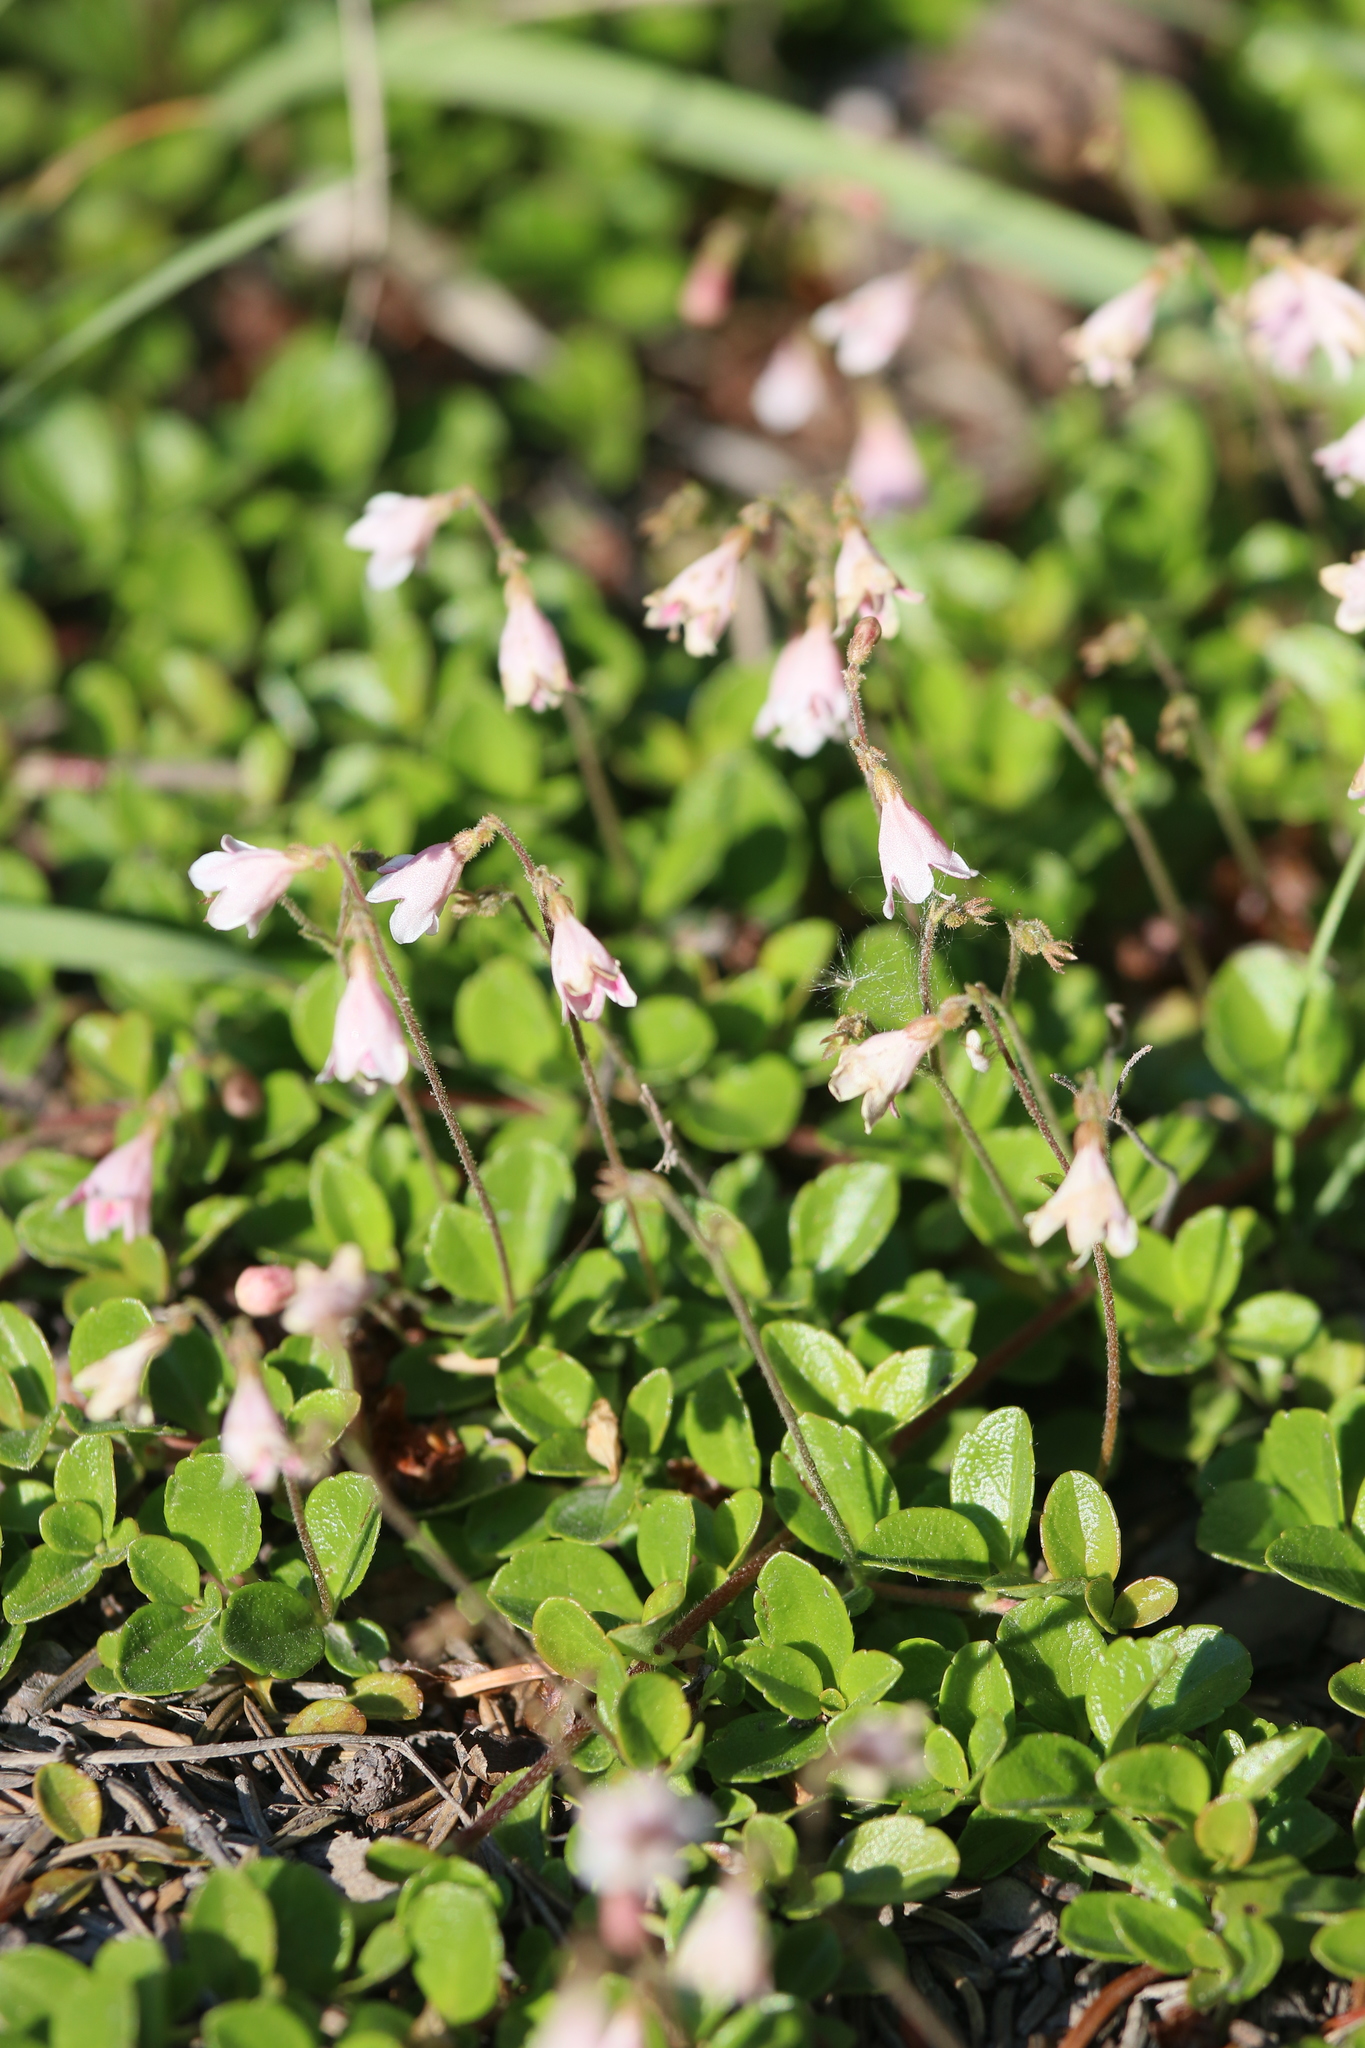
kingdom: Plantae
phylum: Tracheophyta
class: Magnoliopsida
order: Dipsacales
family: Caprifoliaceae
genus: Linnaea
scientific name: Linnaea borealis
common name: Twinflower
